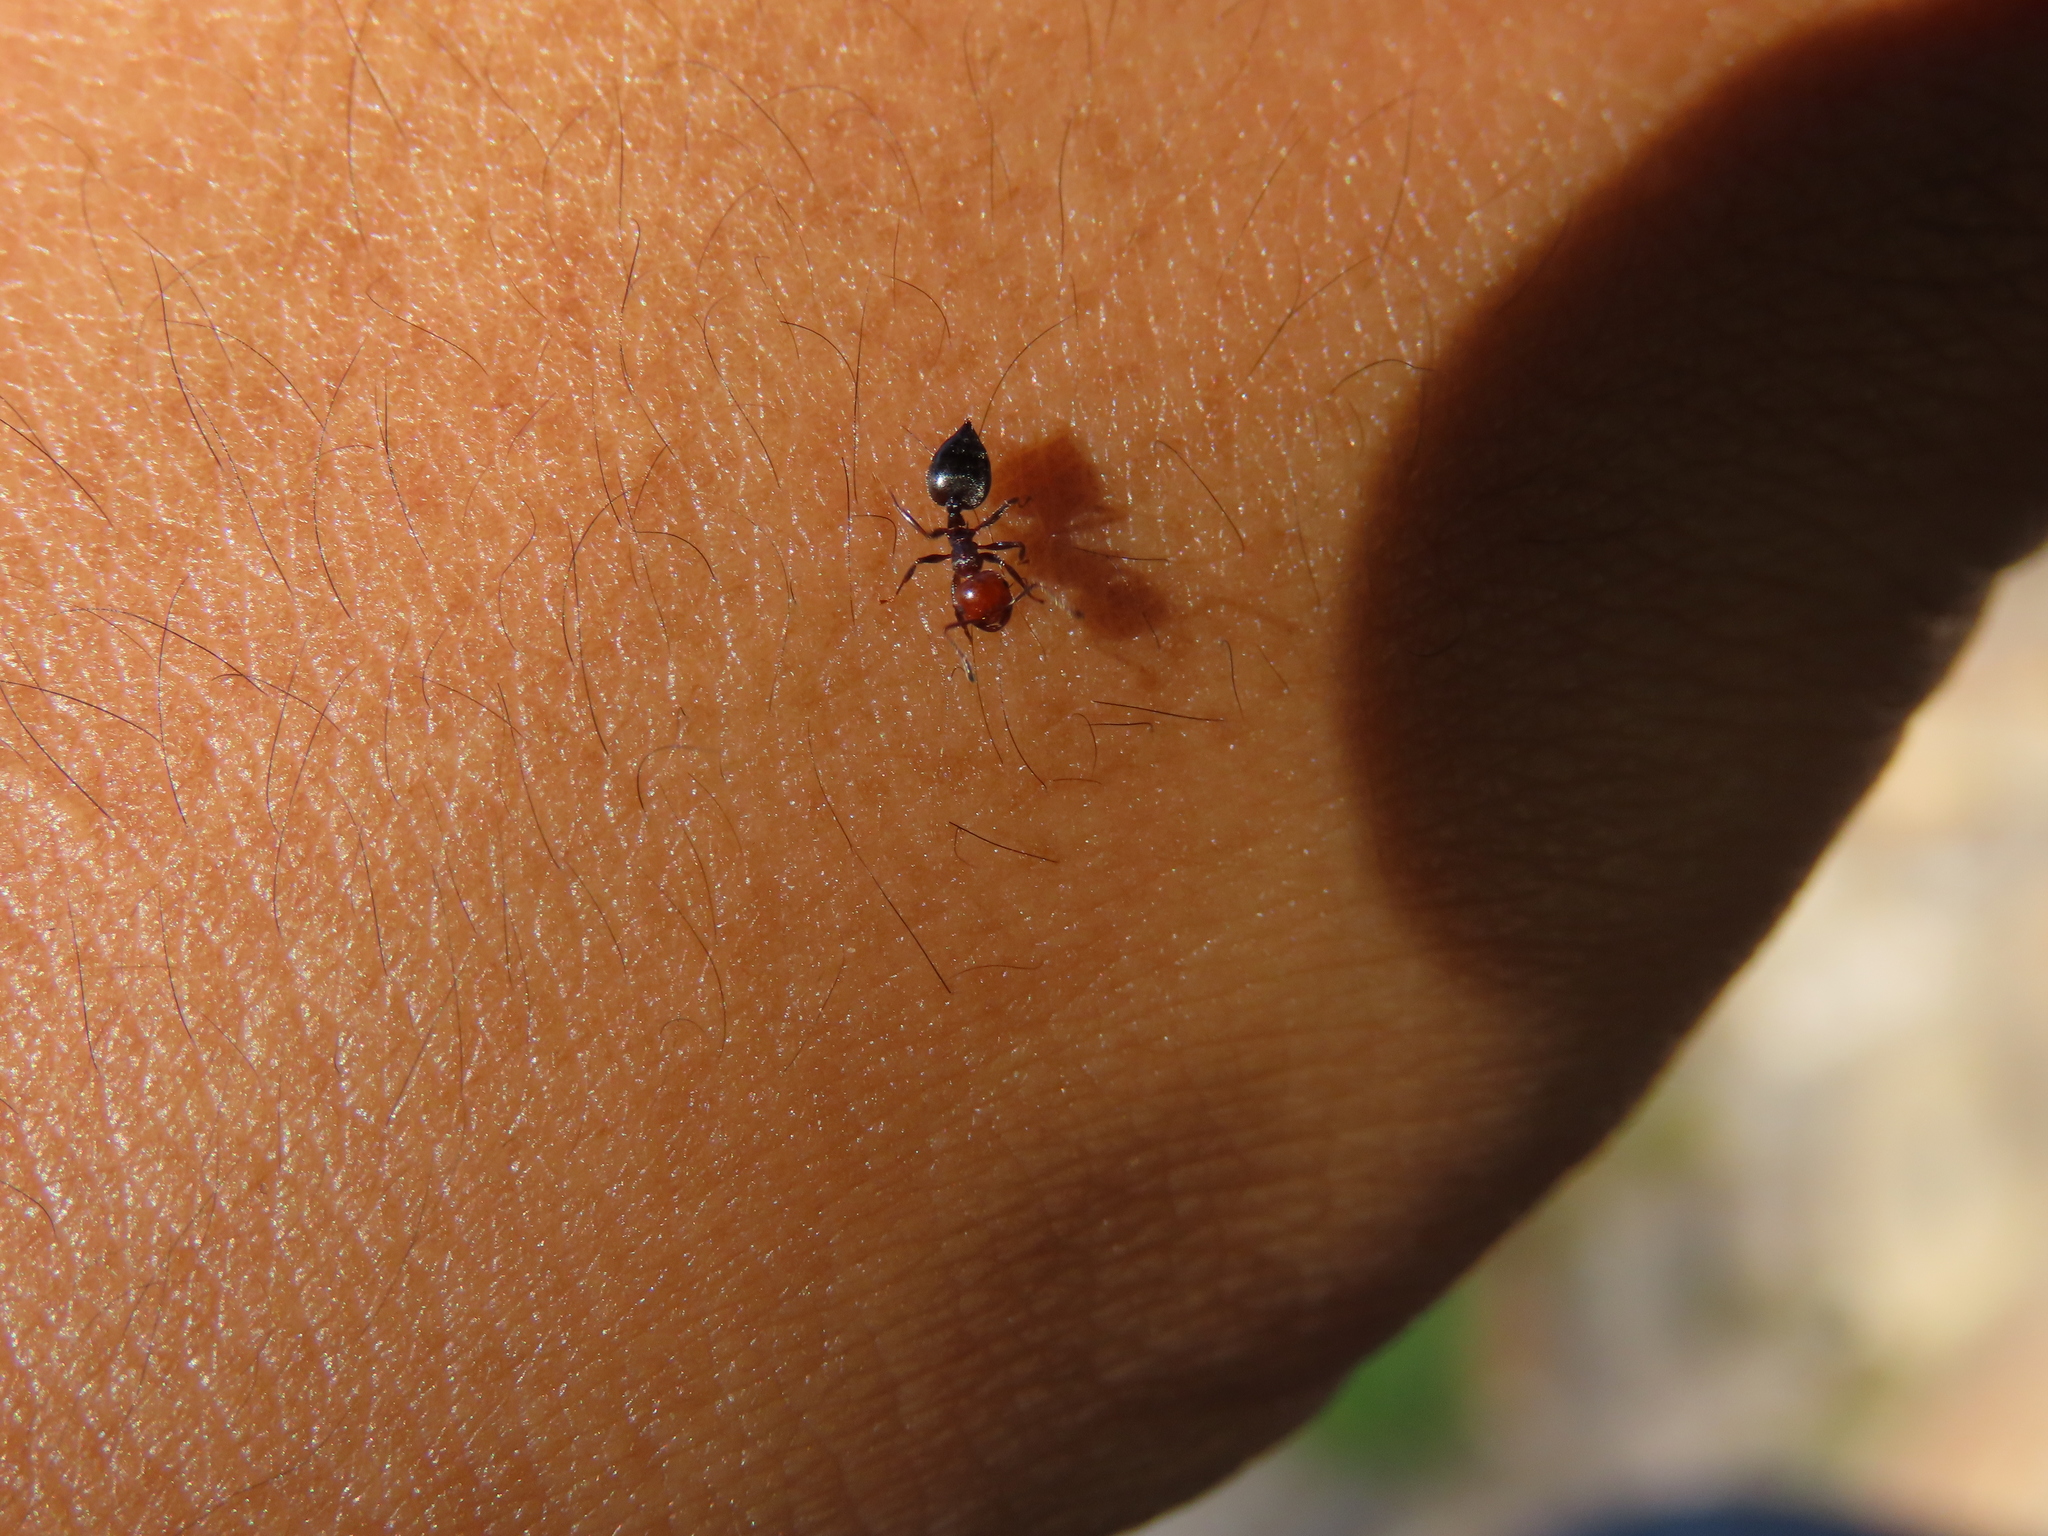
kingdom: Animalia
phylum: Arthropoda
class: Insecta
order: Hymenoptera
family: Formicidae
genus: Crematogaster
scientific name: Crematogaster scutellaris
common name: Fourmi du liège
